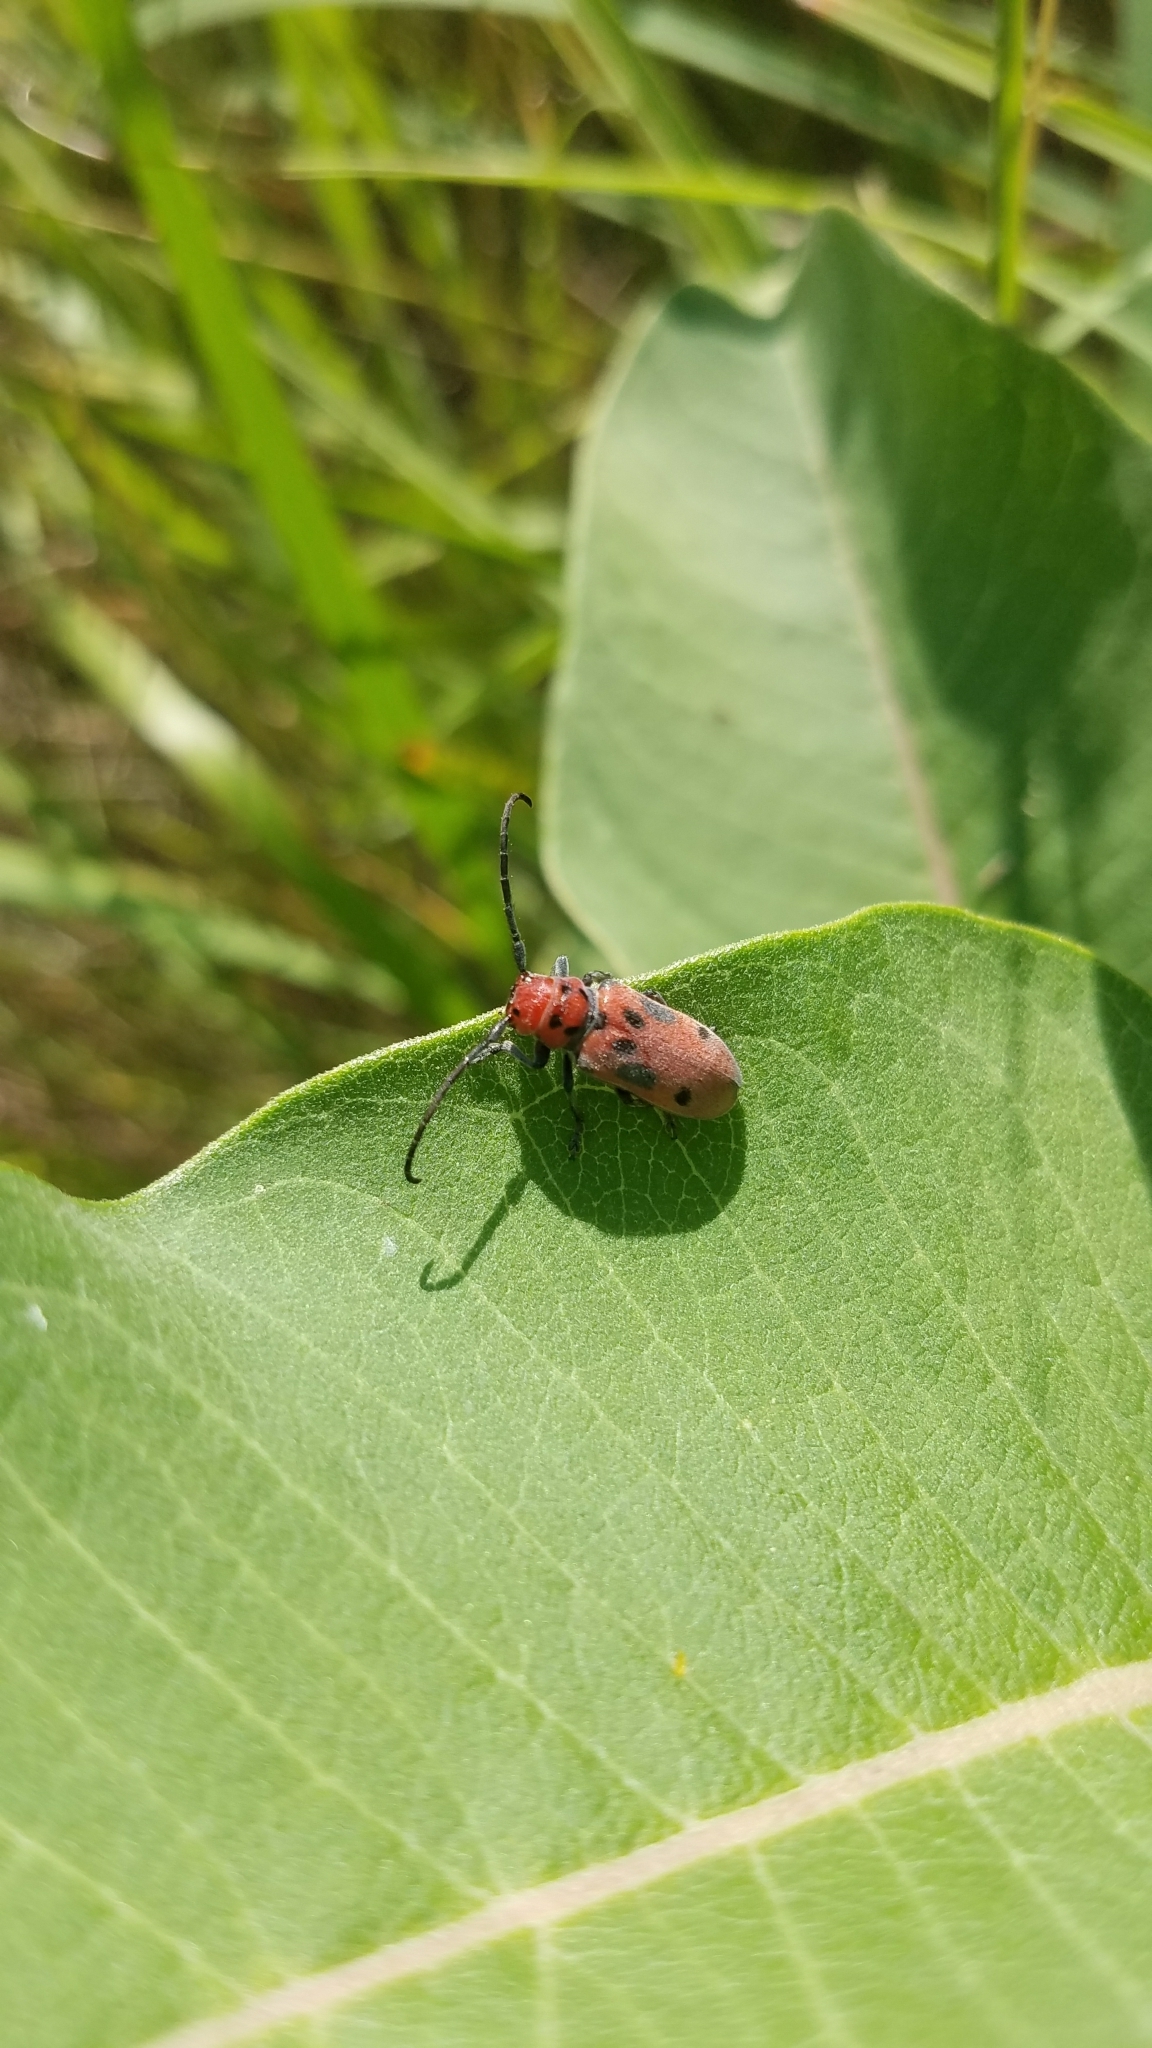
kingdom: Animalia
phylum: Arthropoda
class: Insecta
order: Coleoptera
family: Cerambycidae
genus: Tetraopes
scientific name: Tetraopes tetrophthalmus
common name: Red milkweed beetle
